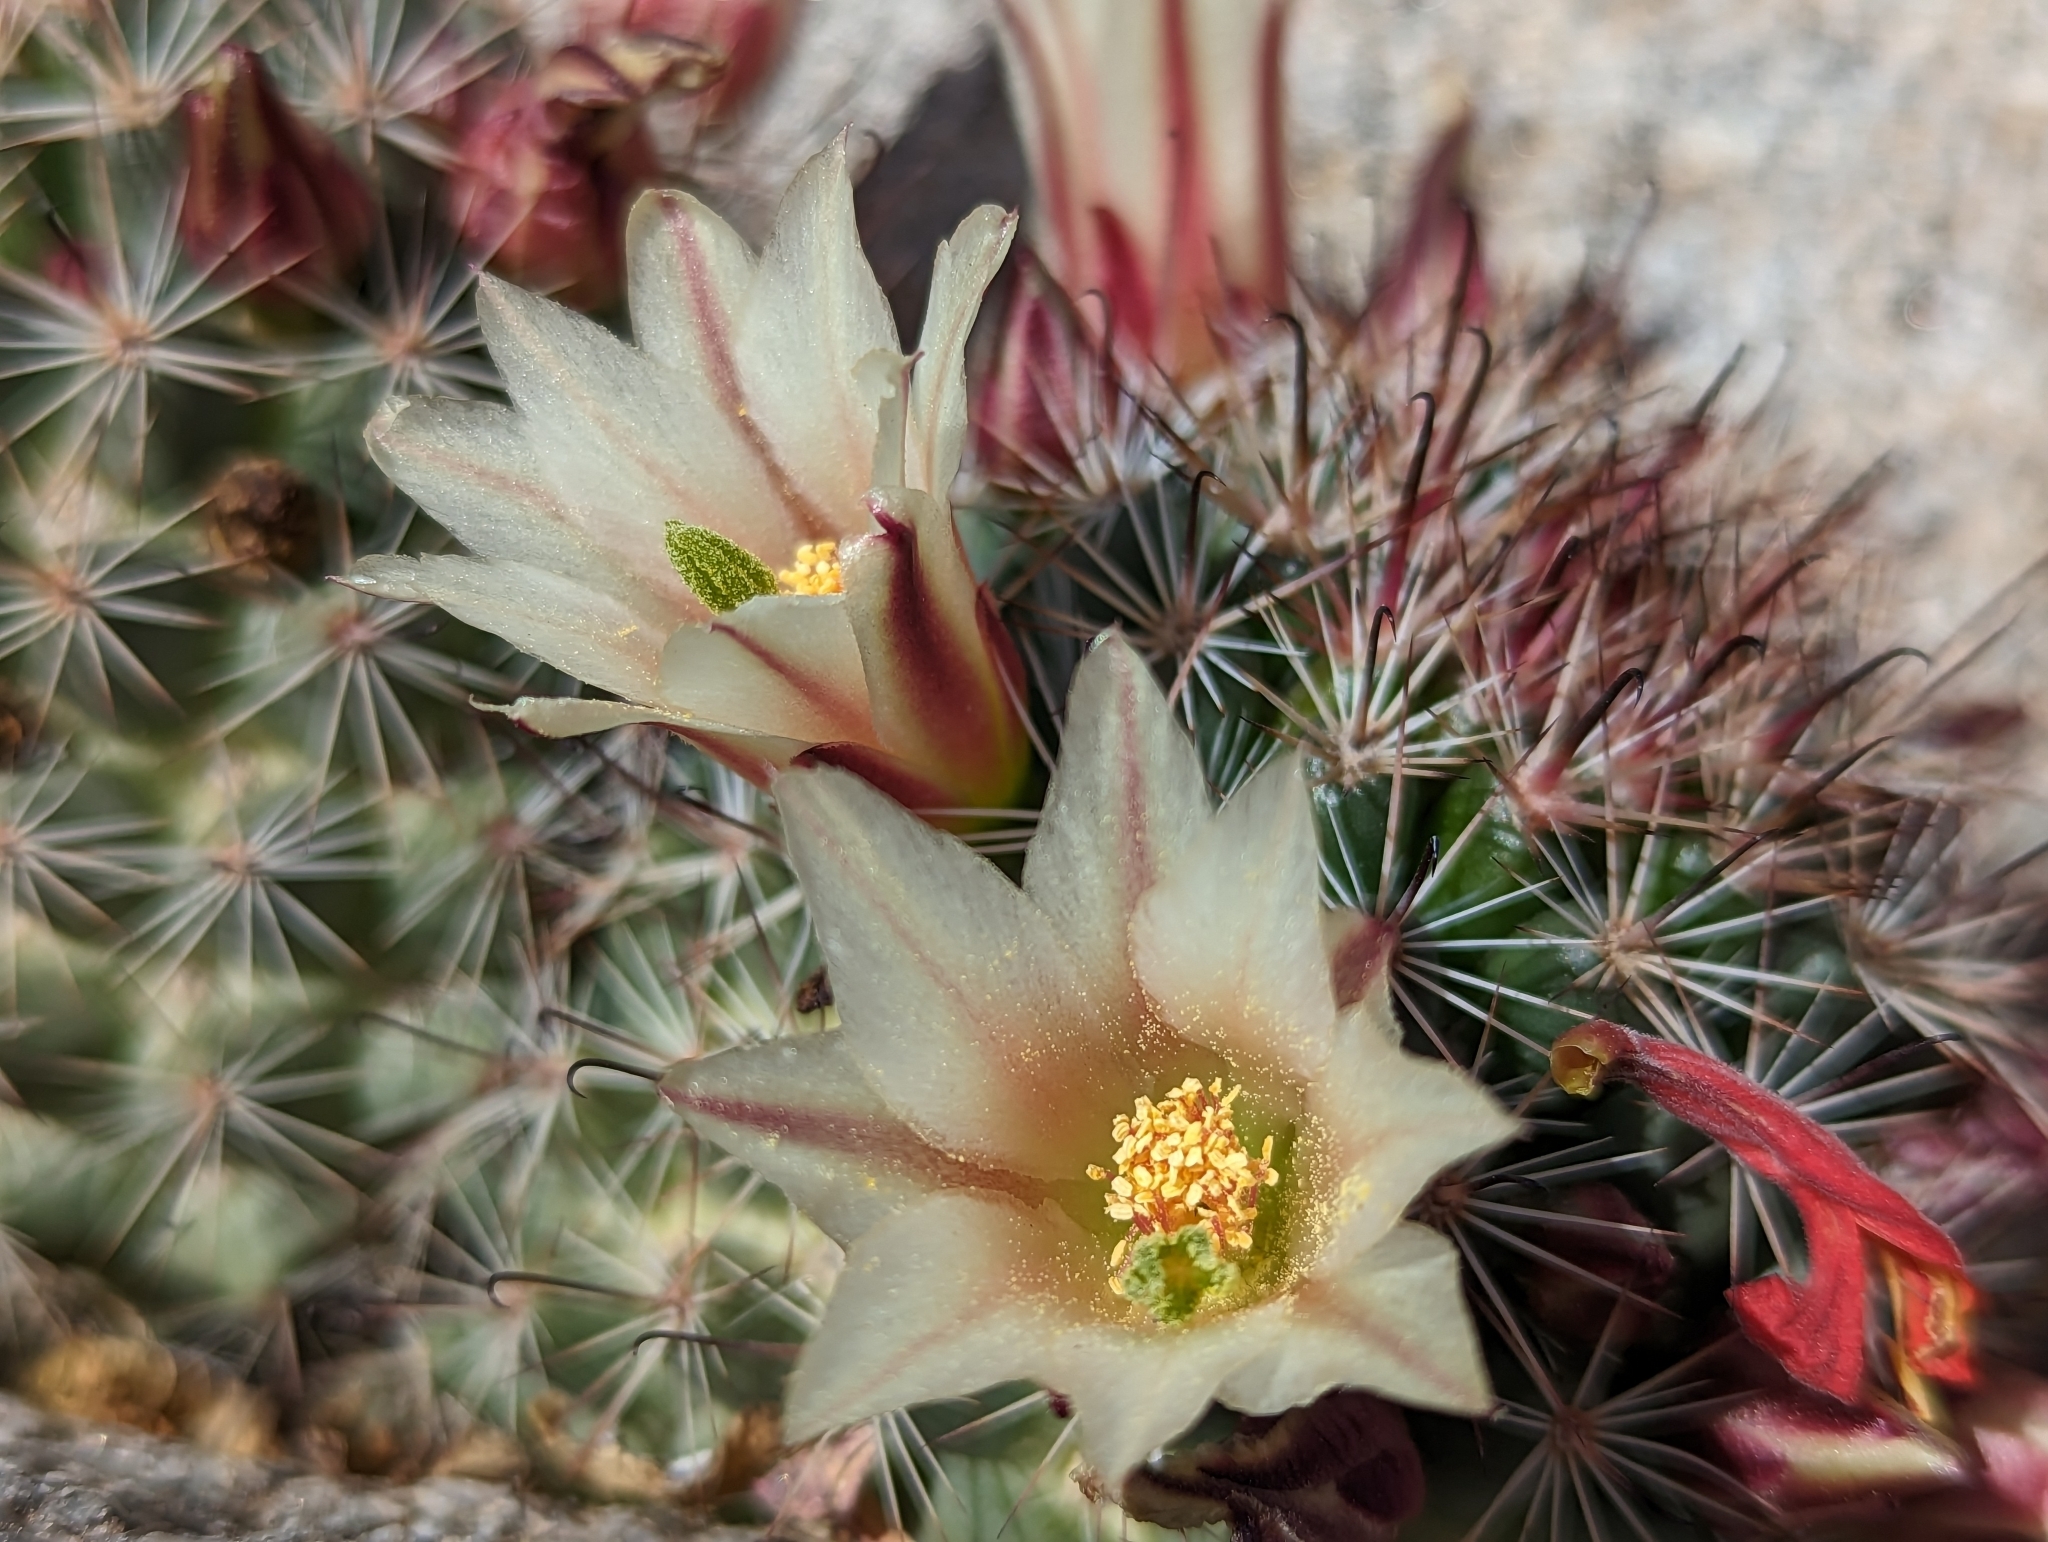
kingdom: Plantae
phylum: Tracheophyta
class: Magnoliopsida
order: Caryophyllales
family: Cactaceae
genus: Cochemiea
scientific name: Cochemiea dioica
